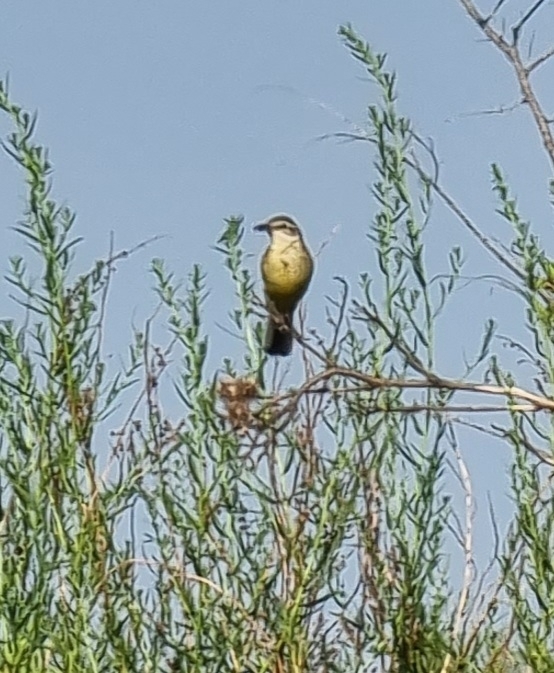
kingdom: Animalia
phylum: Chordata
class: Aves
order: Passeriformes
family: Motacillidae
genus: Motacilla
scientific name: Motacilla flava
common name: Western yellow wagtail
